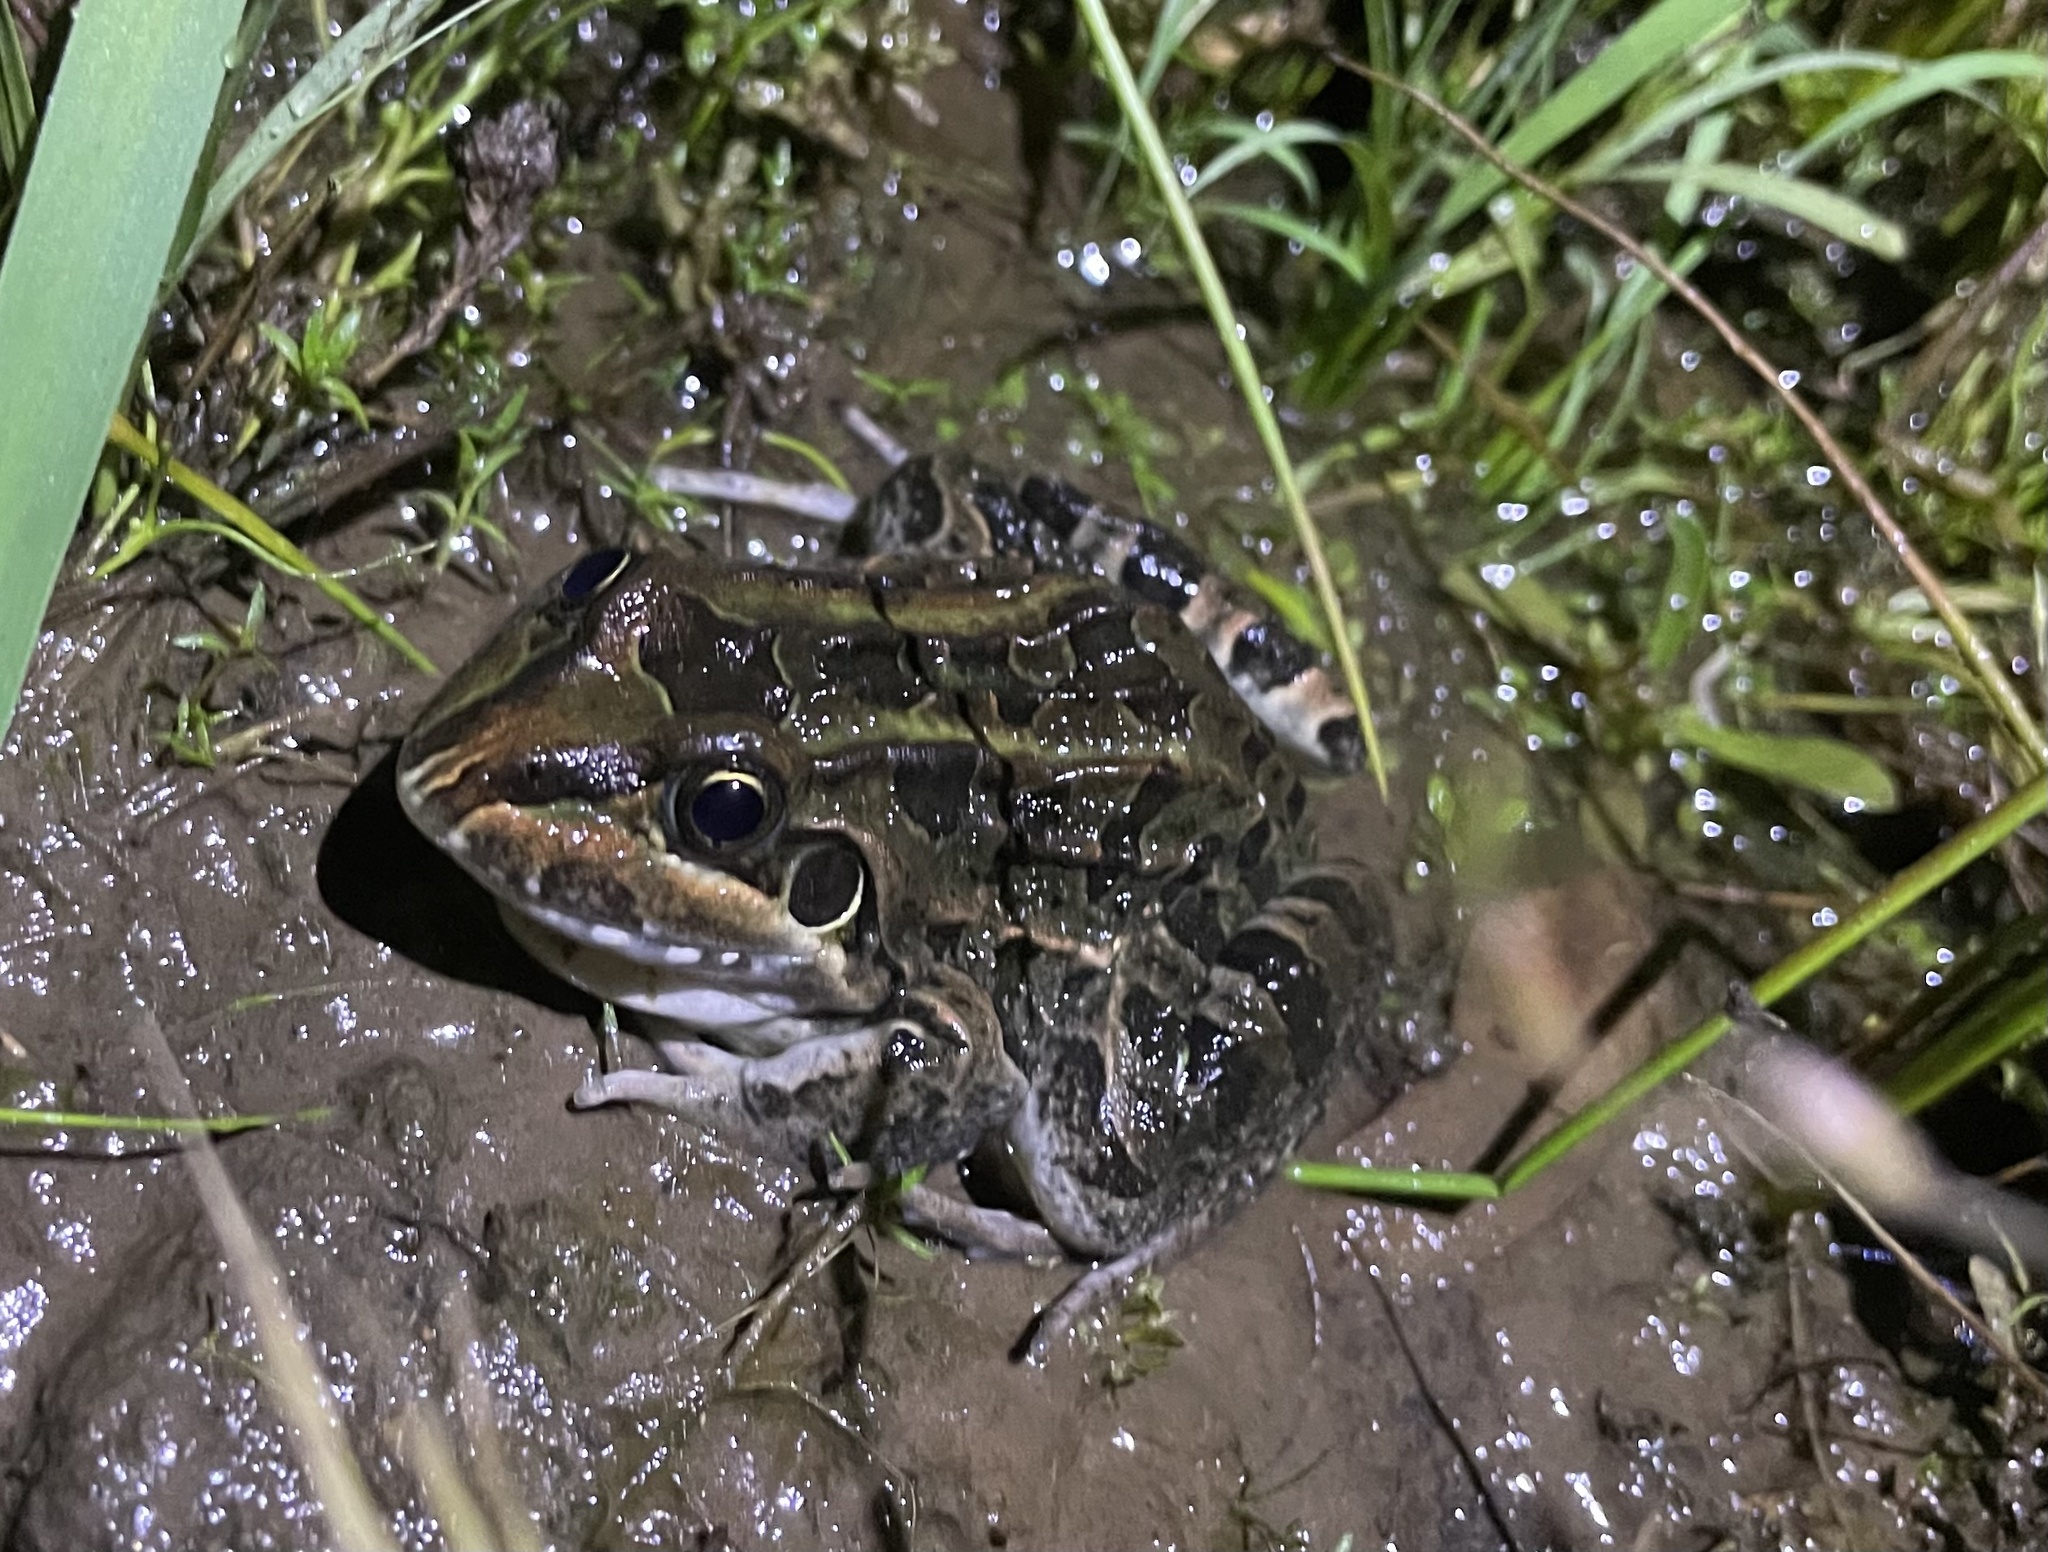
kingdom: Animalia
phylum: Chordata
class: Amphibia
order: Anura
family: Leptodactylidae
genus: Leptodactylus
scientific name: Leptodactylus luctator
